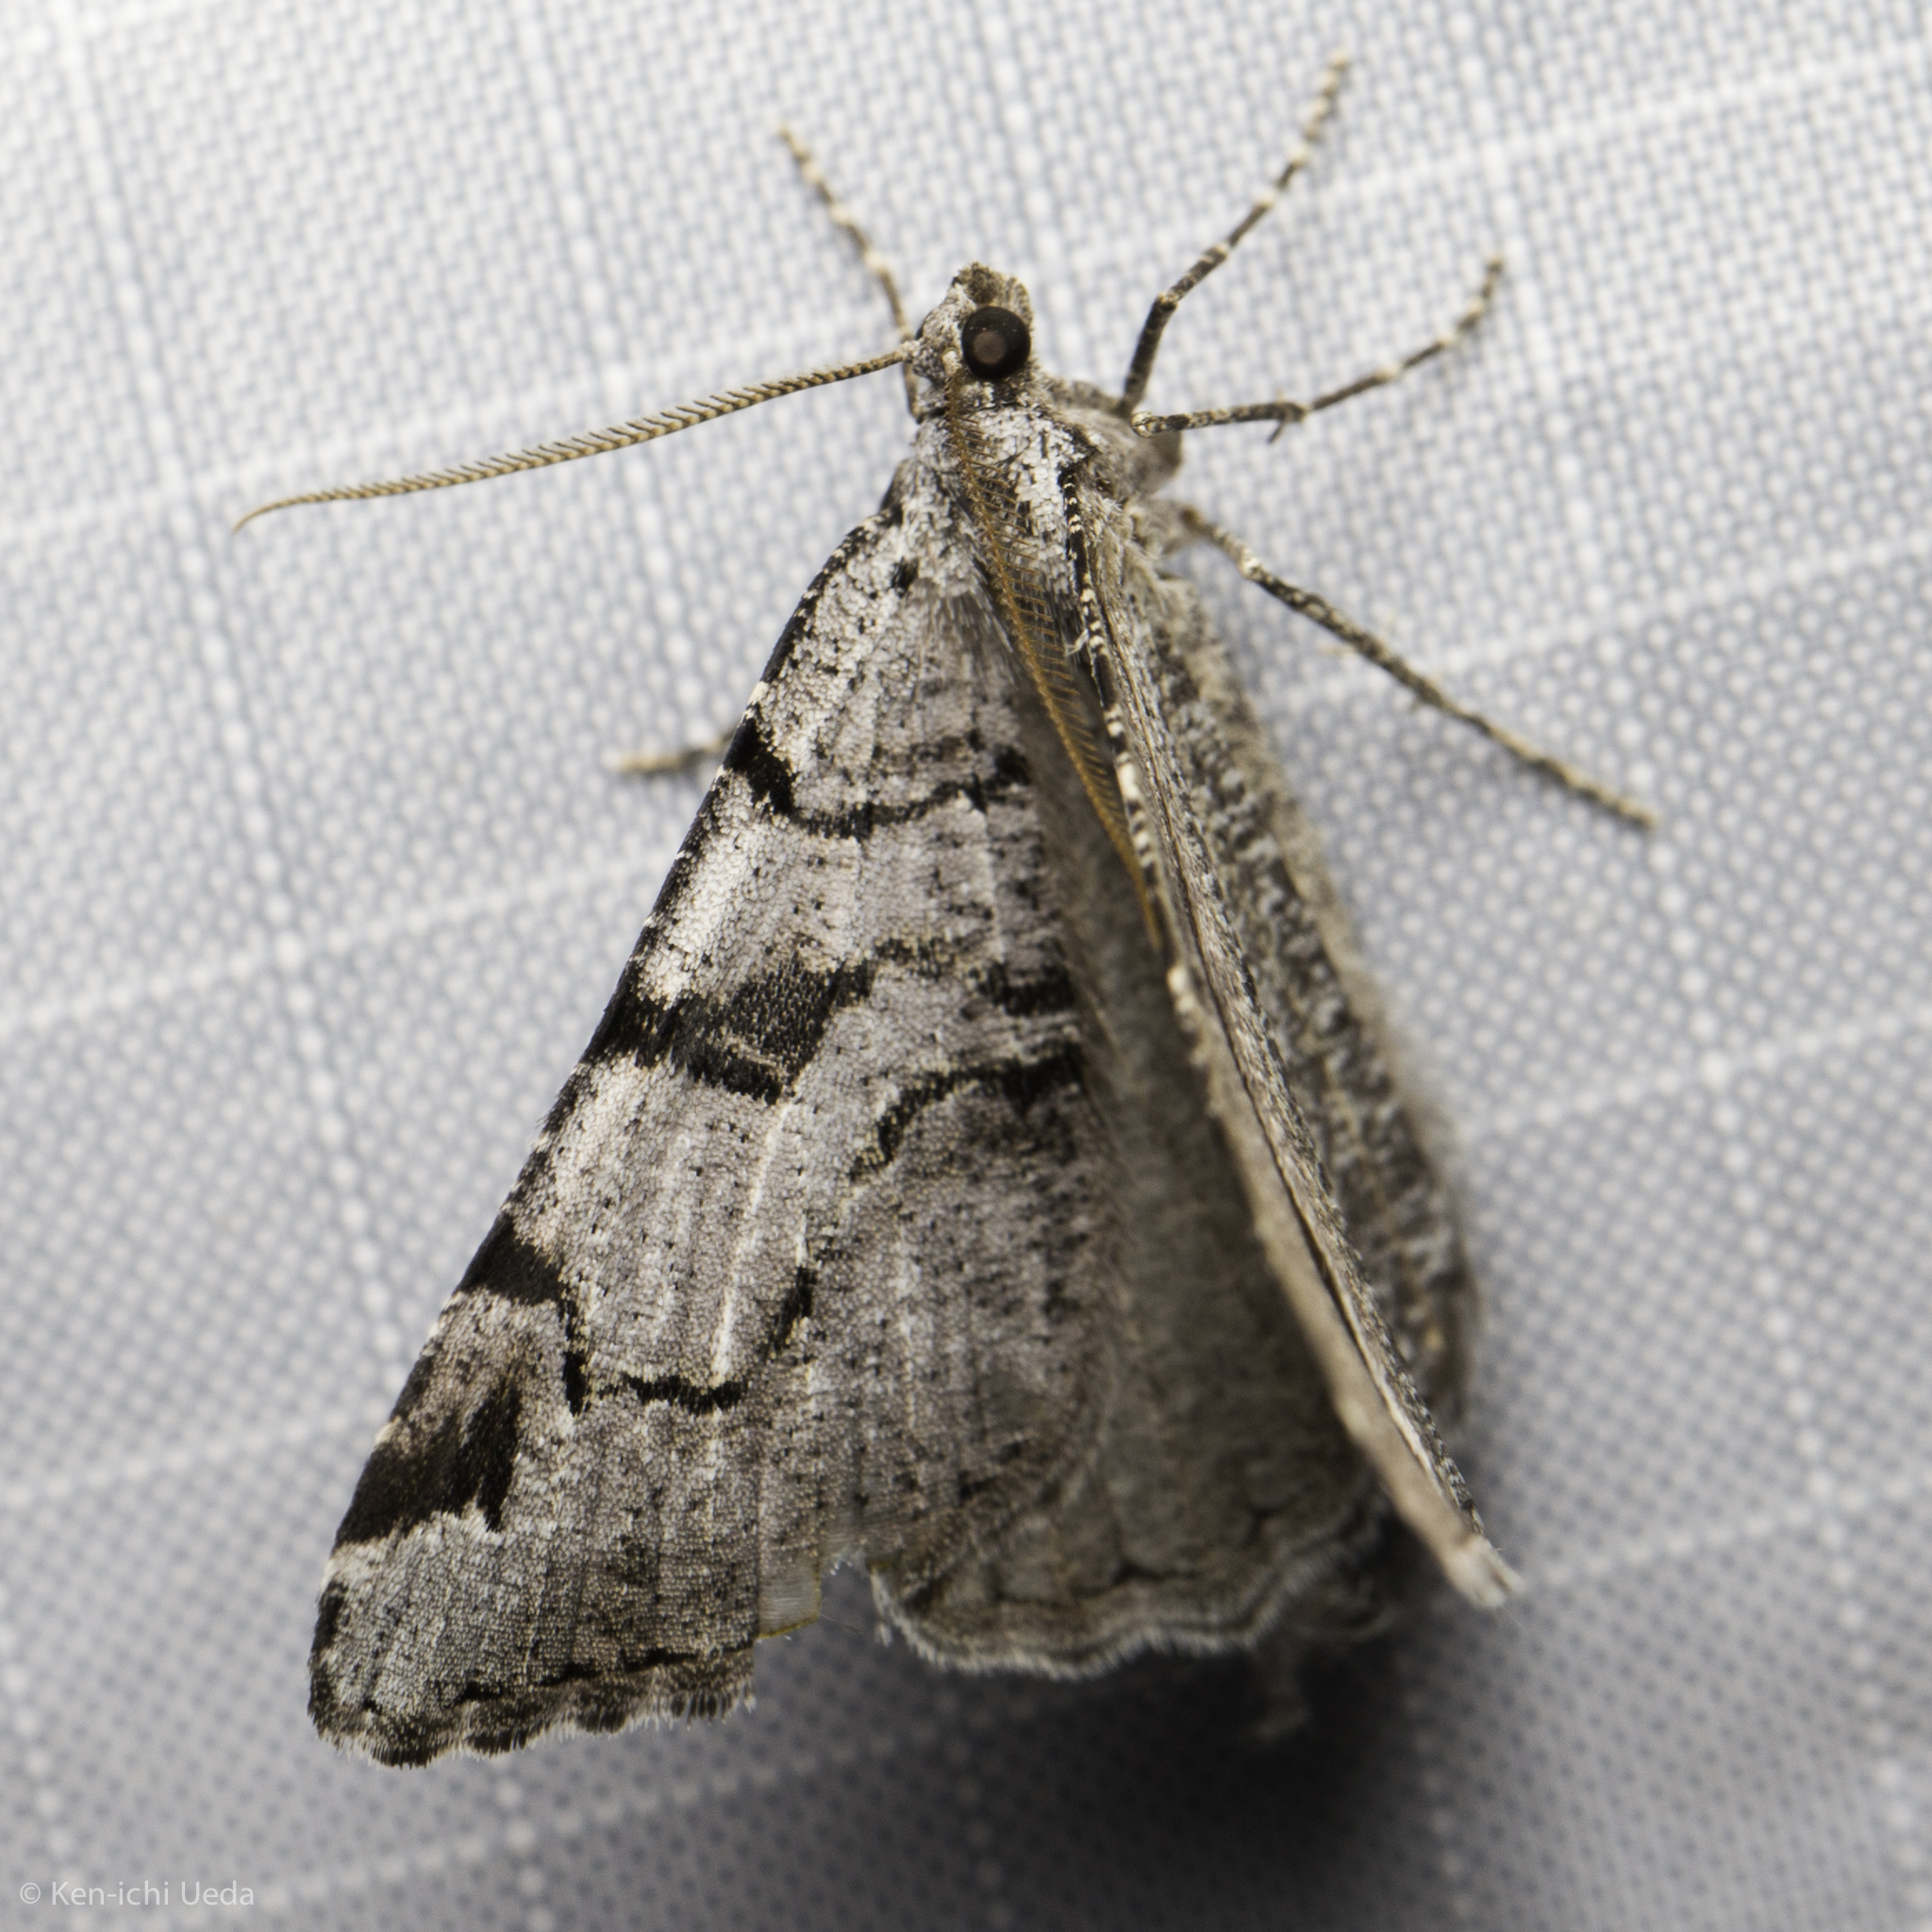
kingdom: Animalia
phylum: Arthropoda
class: Insecta
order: Lepidoptera
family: Geometridae
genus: Macaria
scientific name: Macaria bitactata
